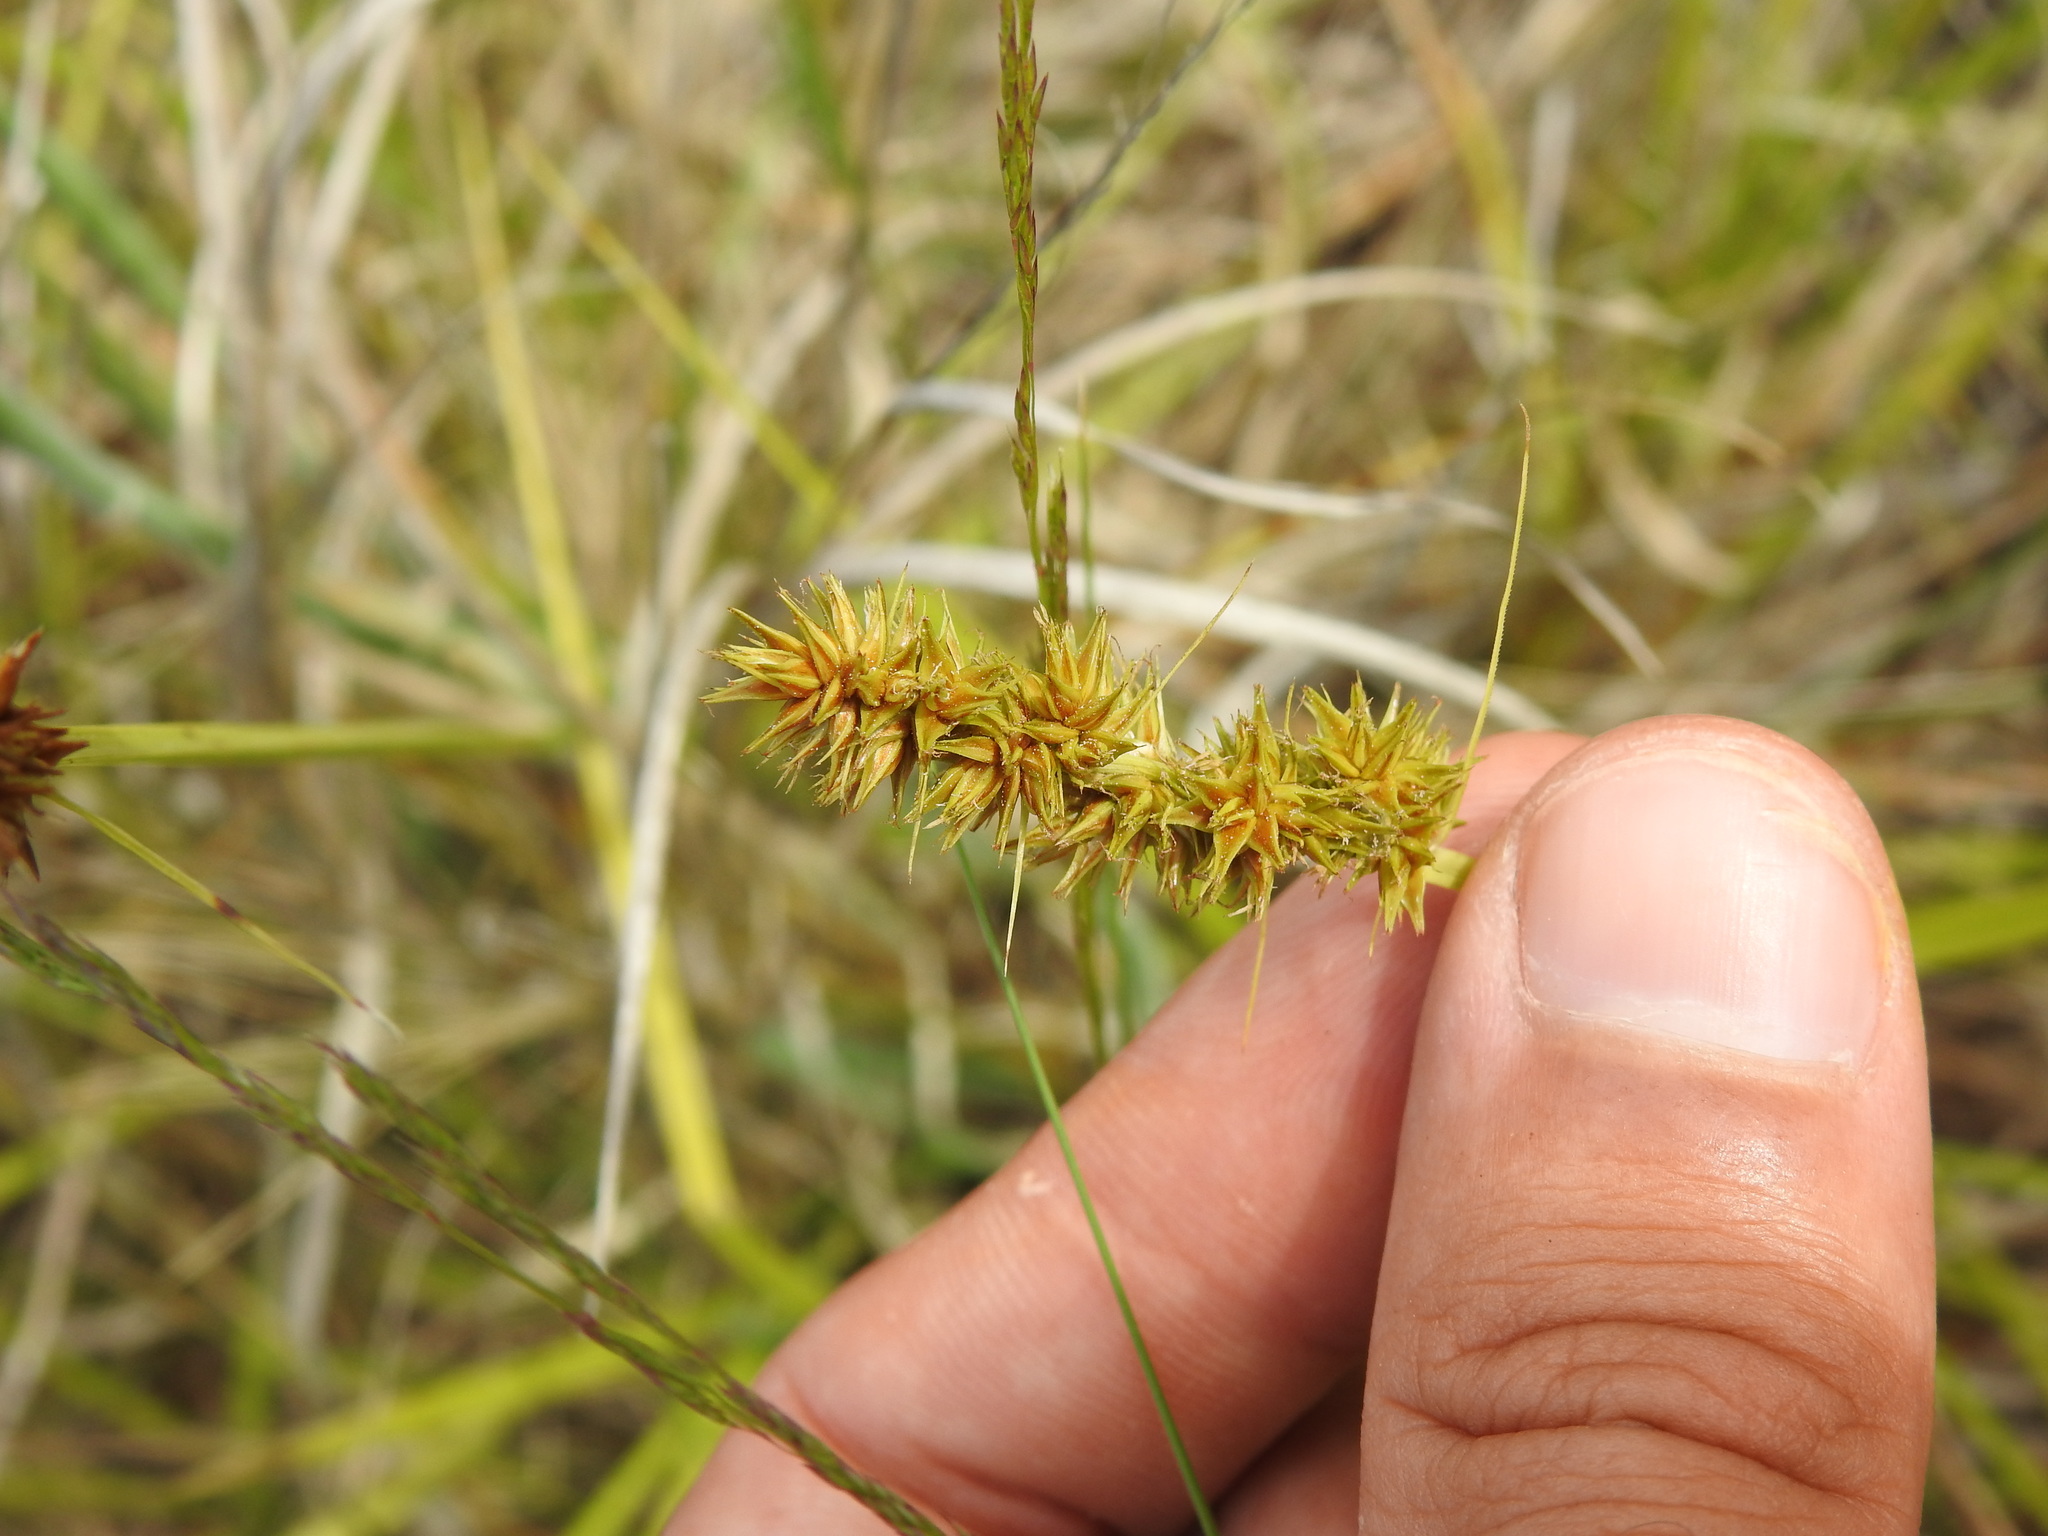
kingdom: Plantae
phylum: Tracheophyta
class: Liliopsida
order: Poales
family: Cyperaceae
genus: Carex
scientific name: Carex otrubae
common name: False fox-sedge
